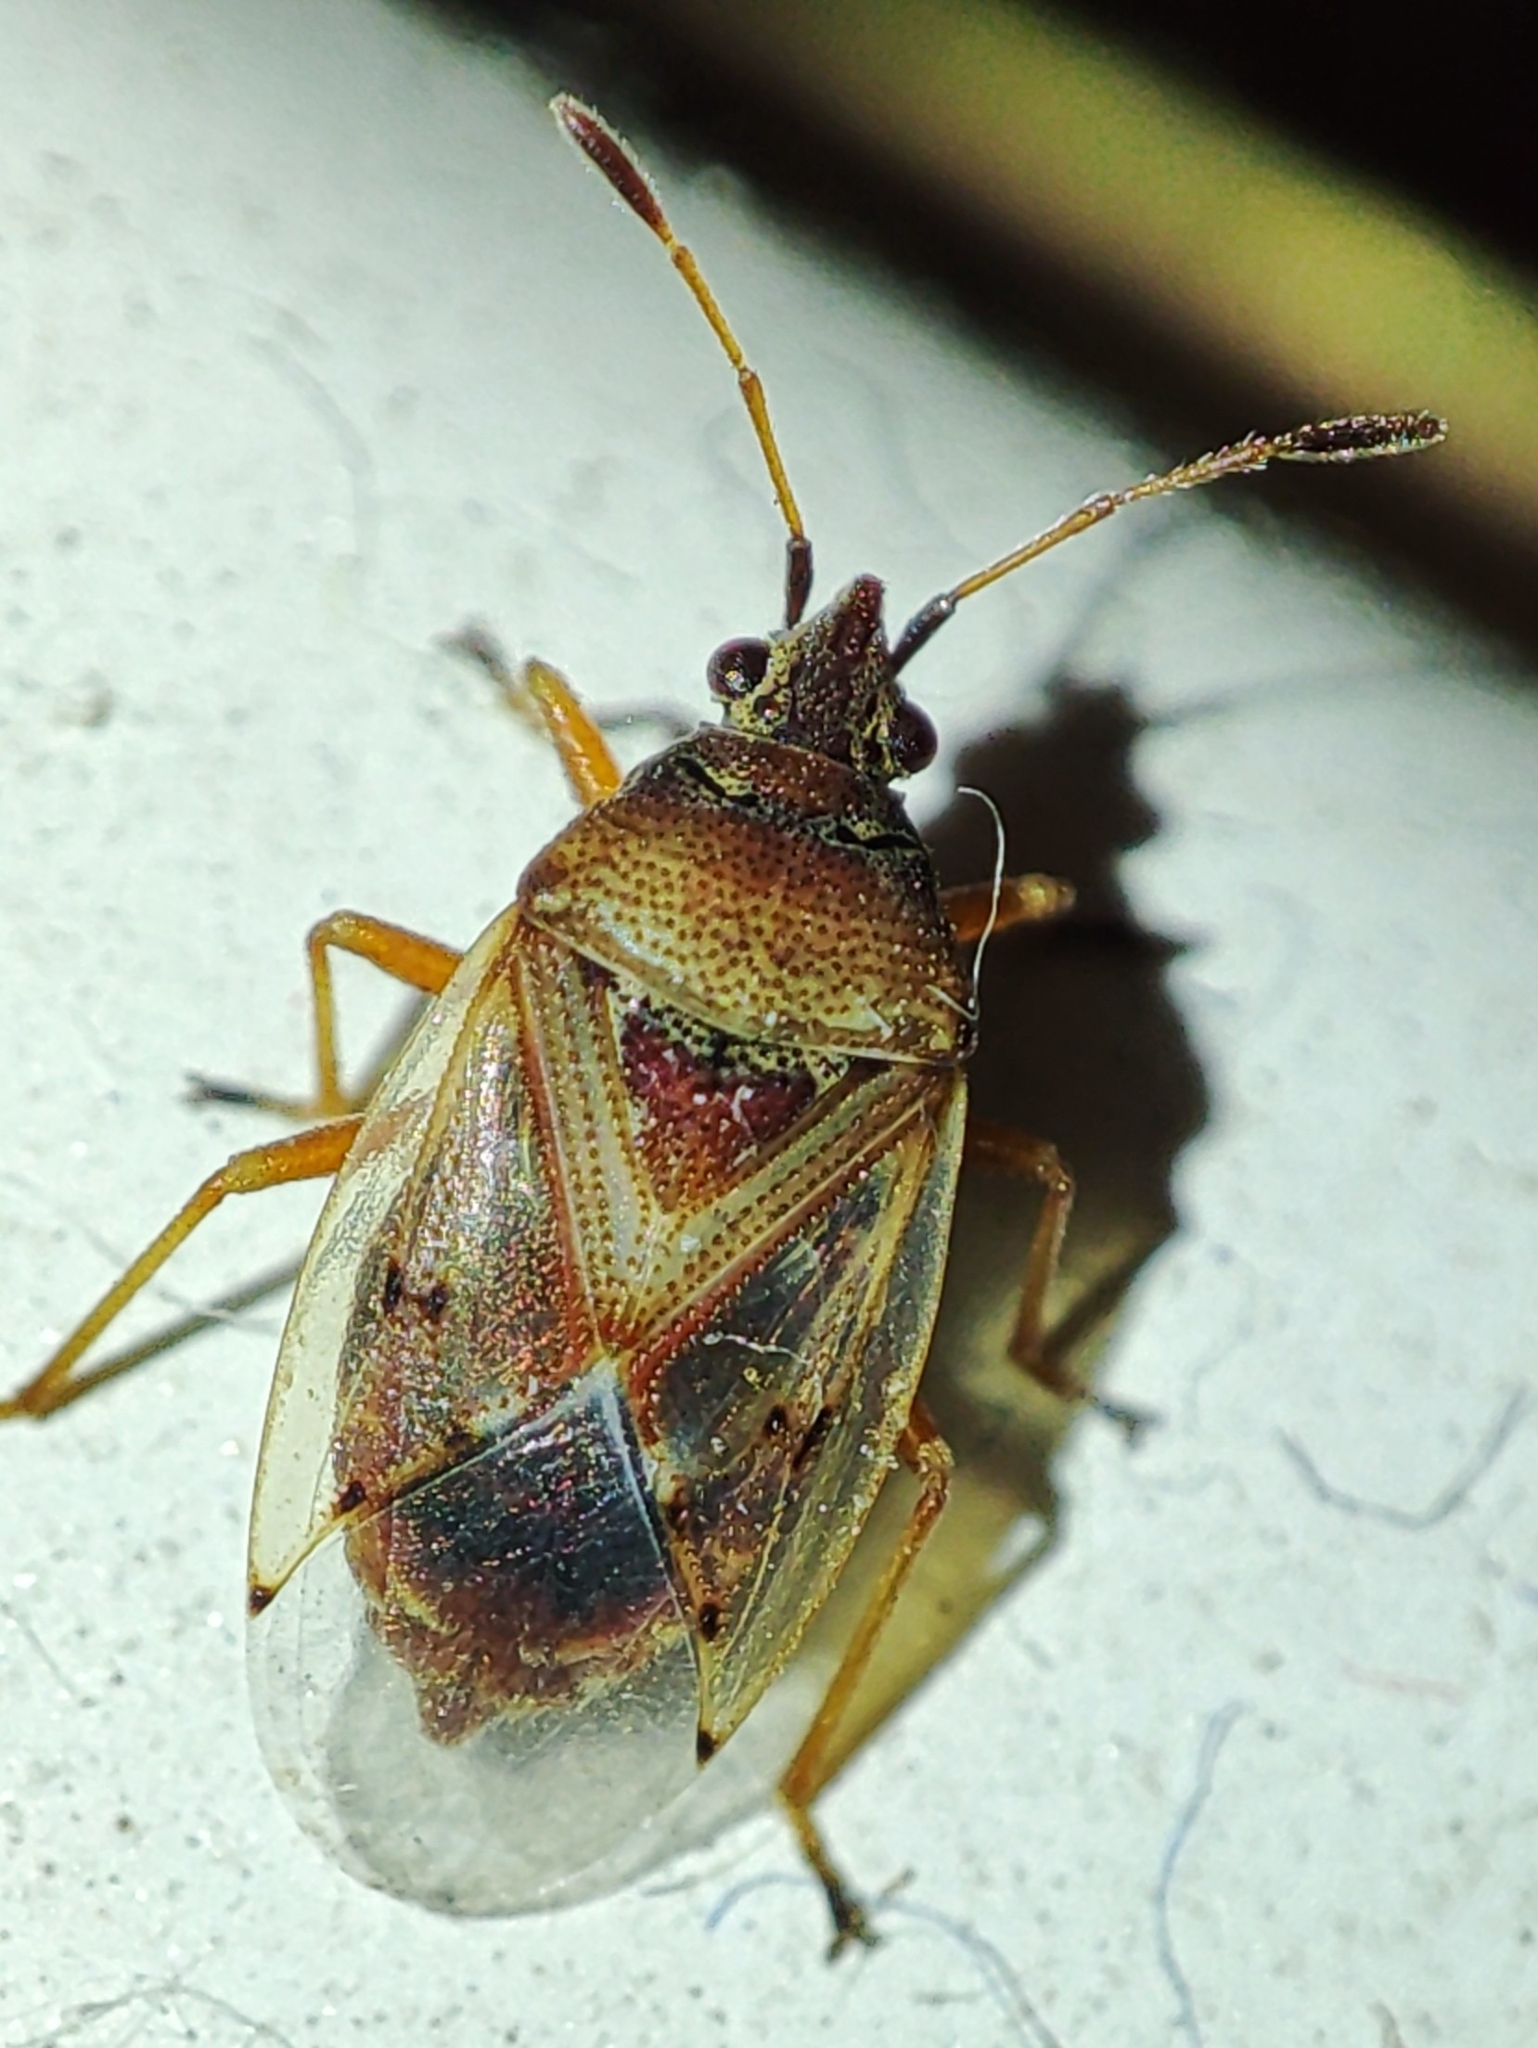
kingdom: Animalia
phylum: Arthropoda
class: Insecta
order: Hemiptera
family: Lygaeidae
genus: Kleidocerys
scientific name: Kleidocerys resedae
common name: Birch catkin bug
